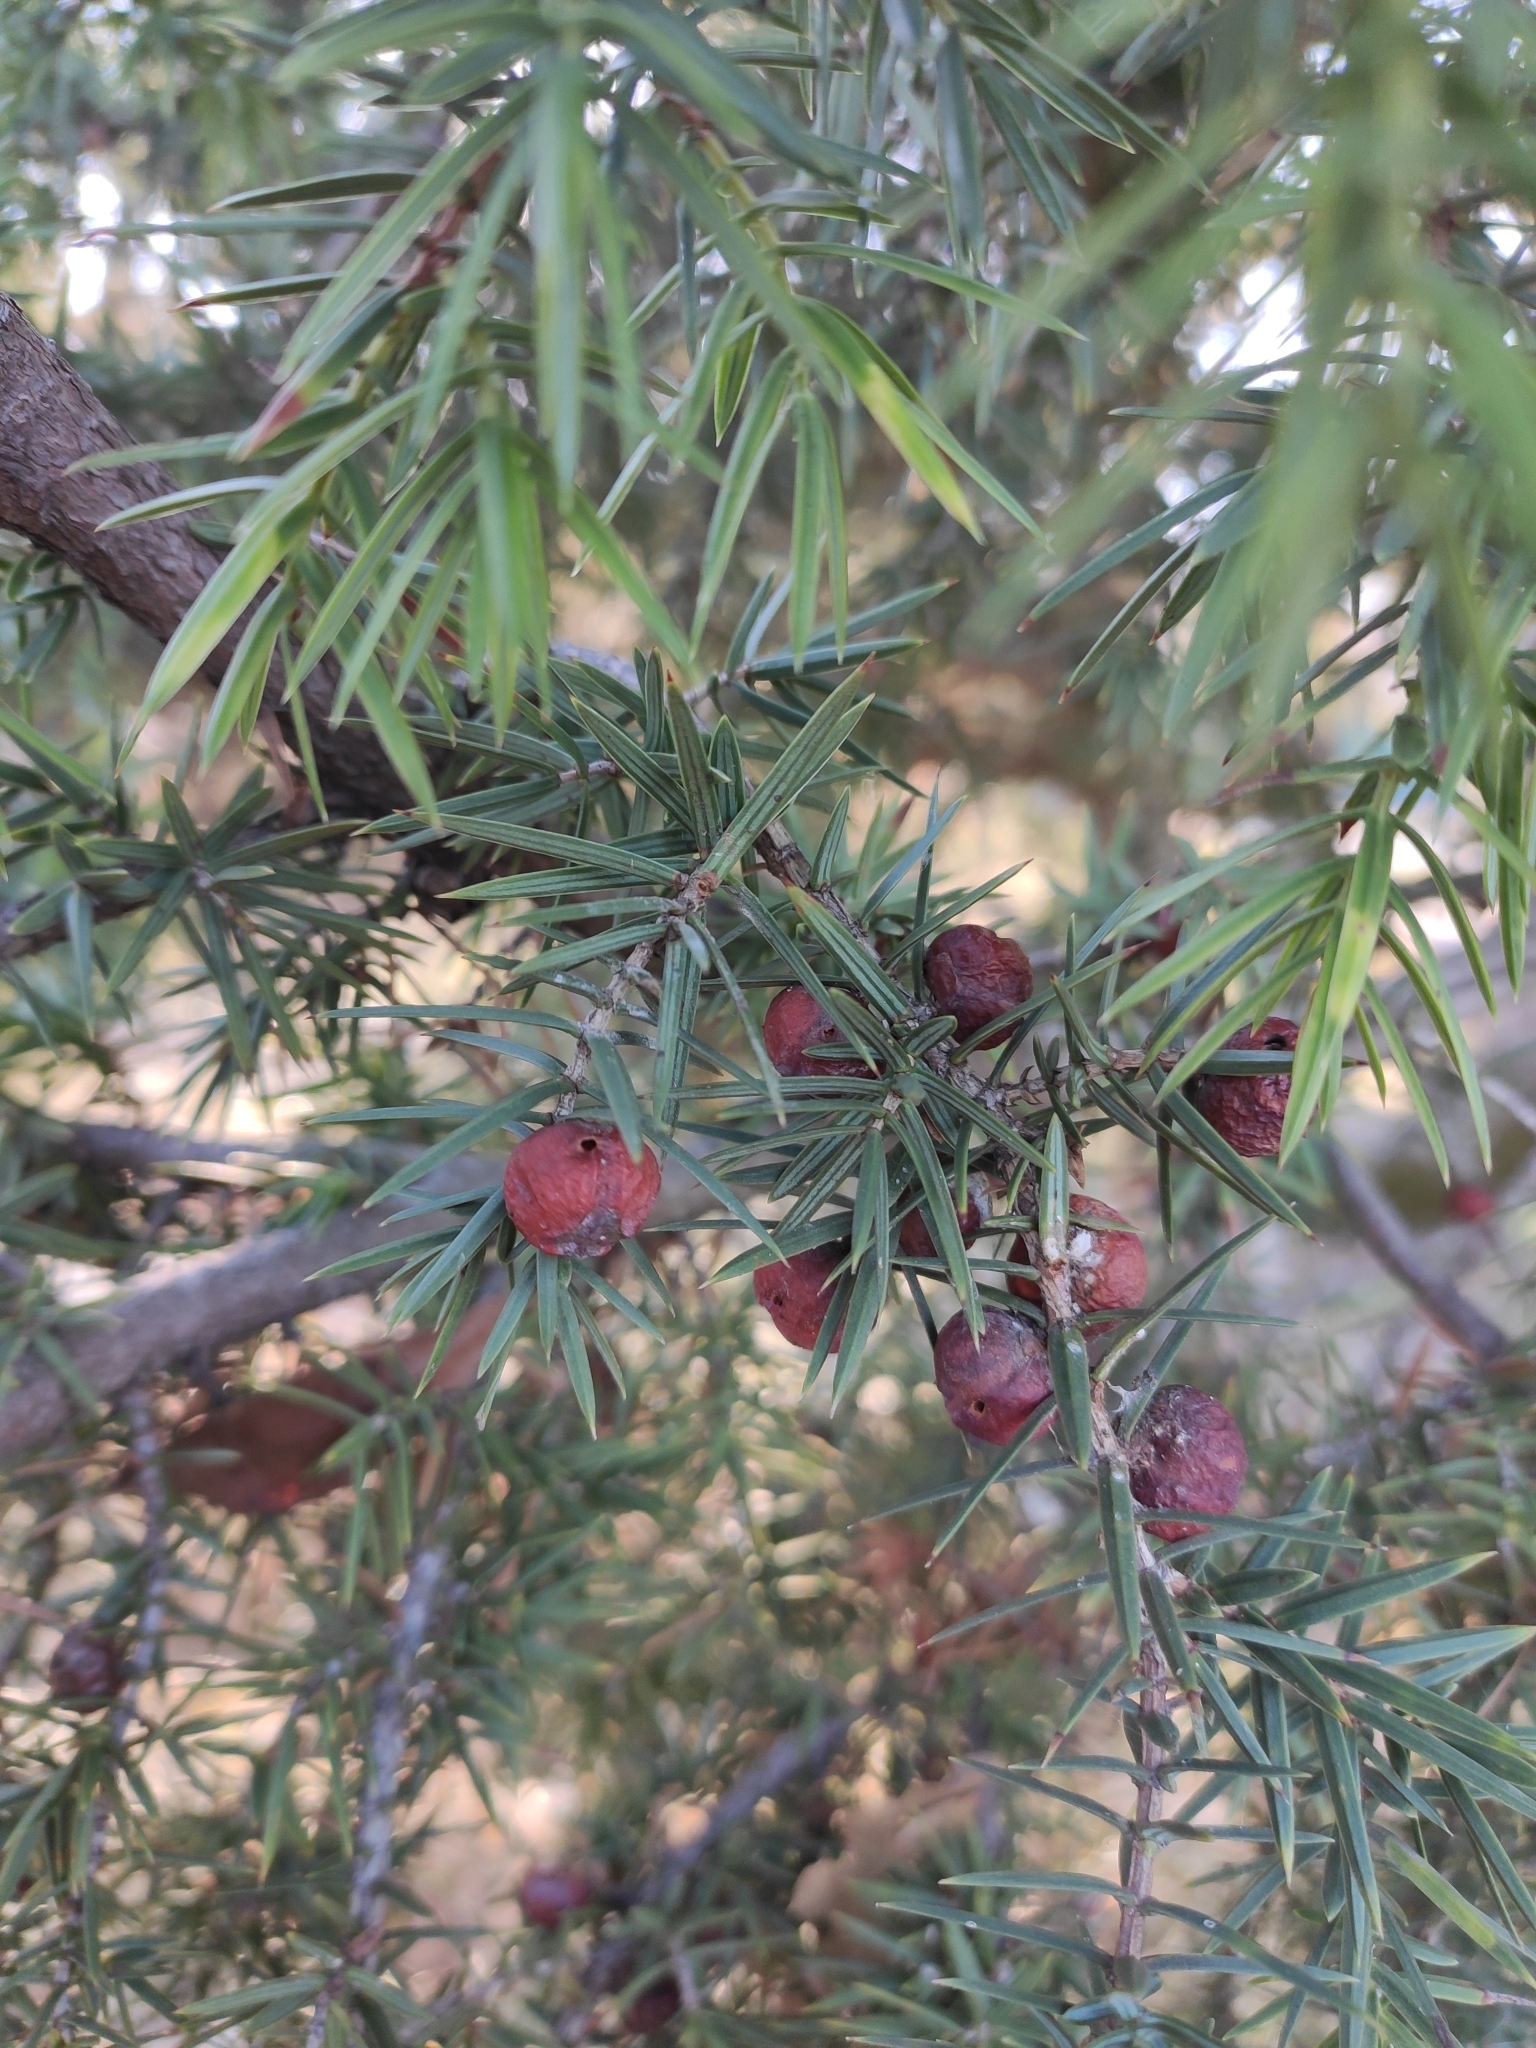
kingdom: Plantae
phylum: Tracheophyta
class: Pinopsida
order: Pinales
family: Cupressaceae
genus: Juniperus
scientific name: Juniperus oxycedrus
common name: Prickly juniper
